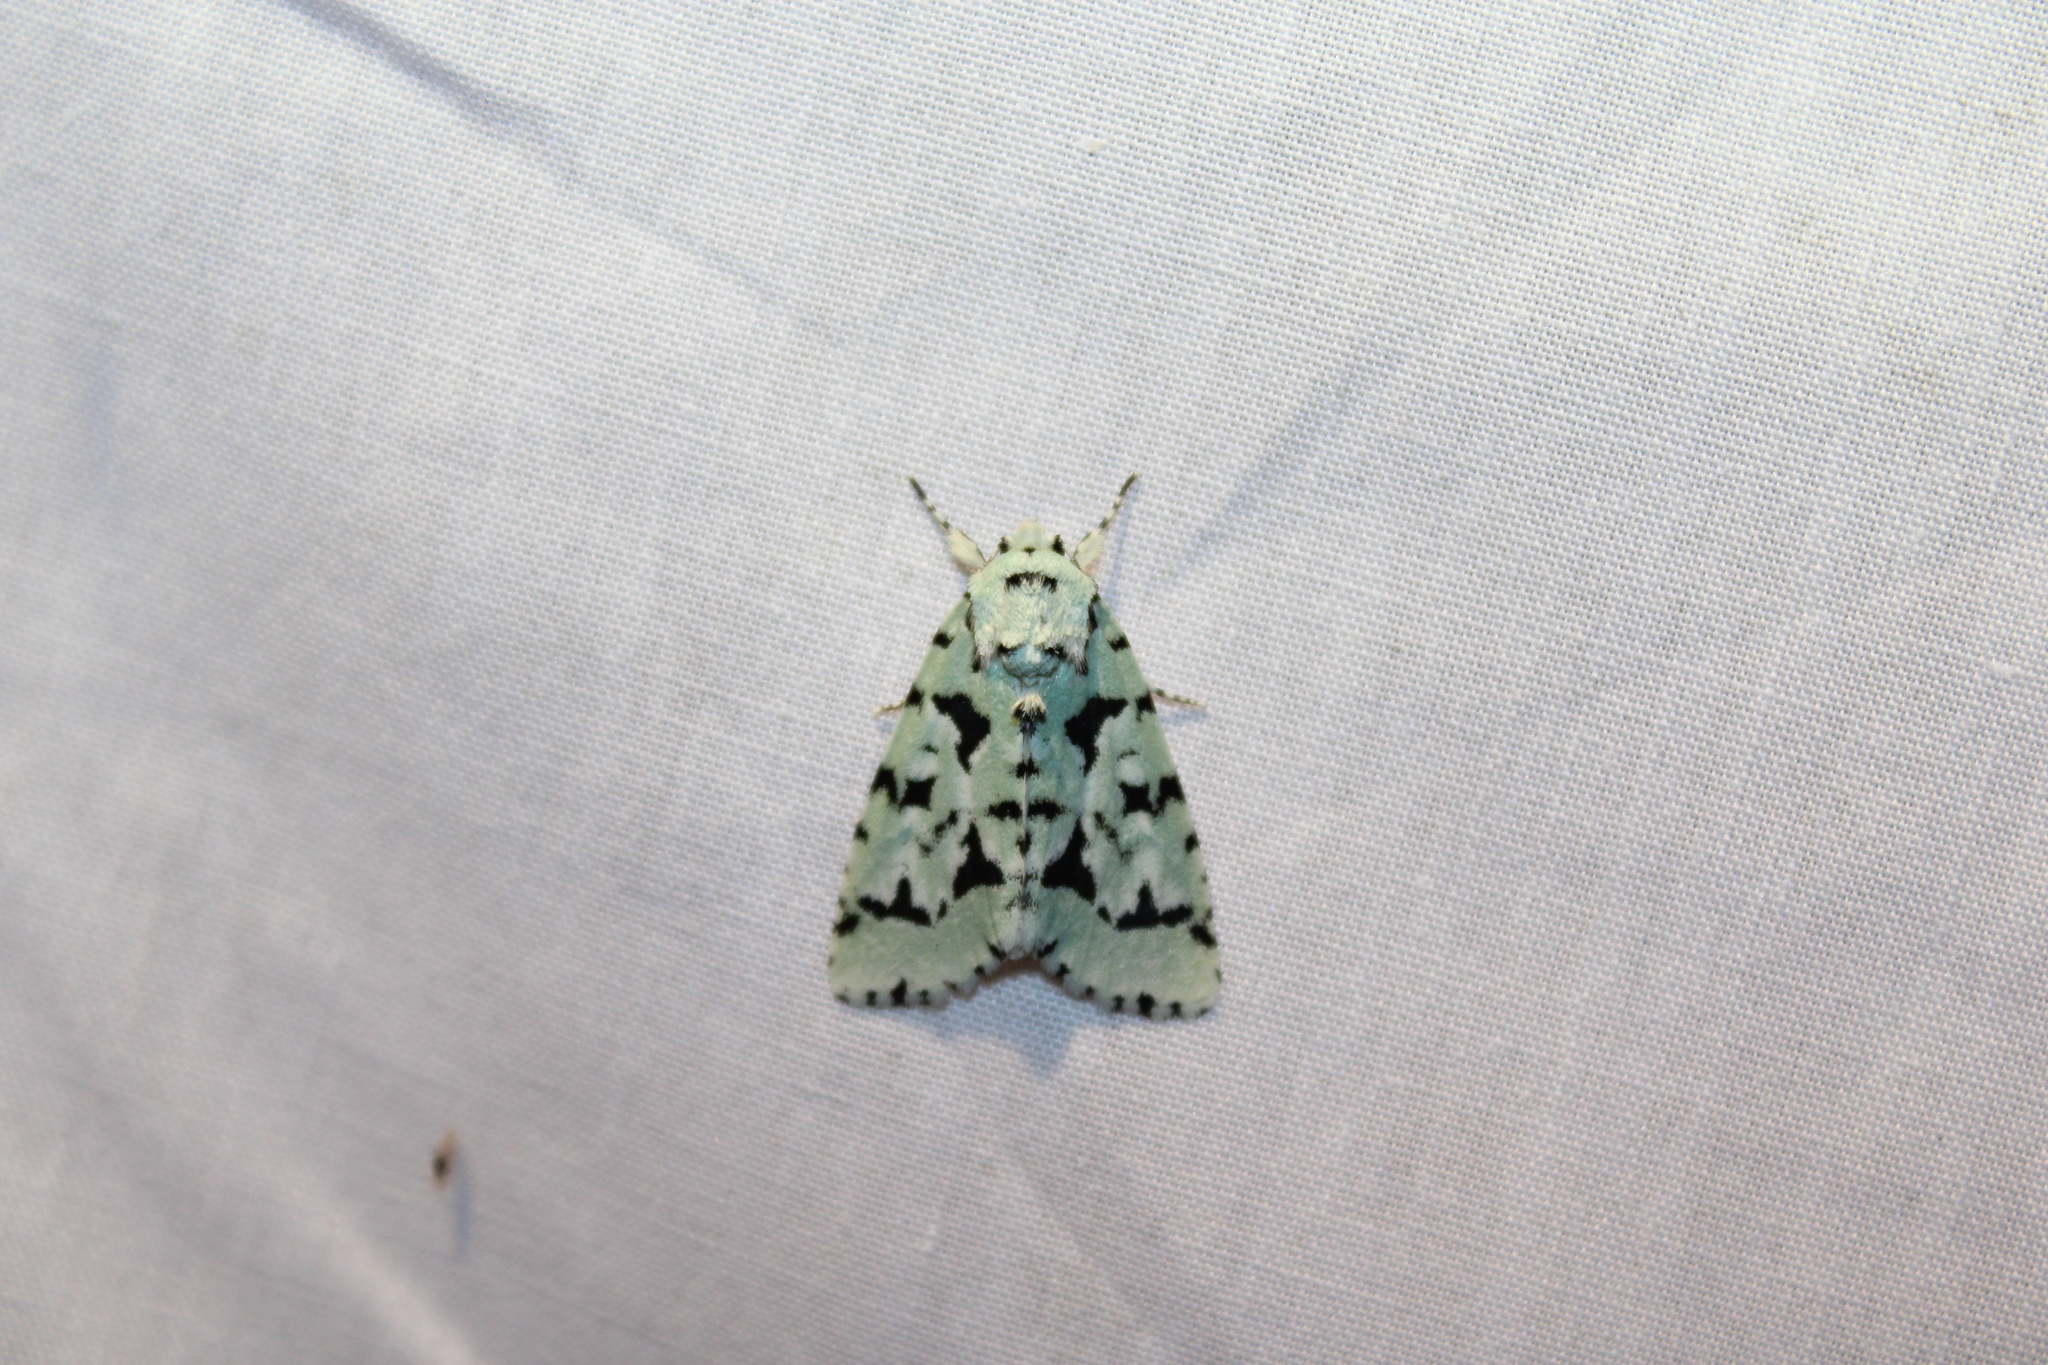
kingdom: Animalia
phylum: Arthropoda
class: Insecta
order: Lepidoptera
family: Noctuidae
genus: Acronicta
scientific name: Acronicta fallax
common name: Green marvel
